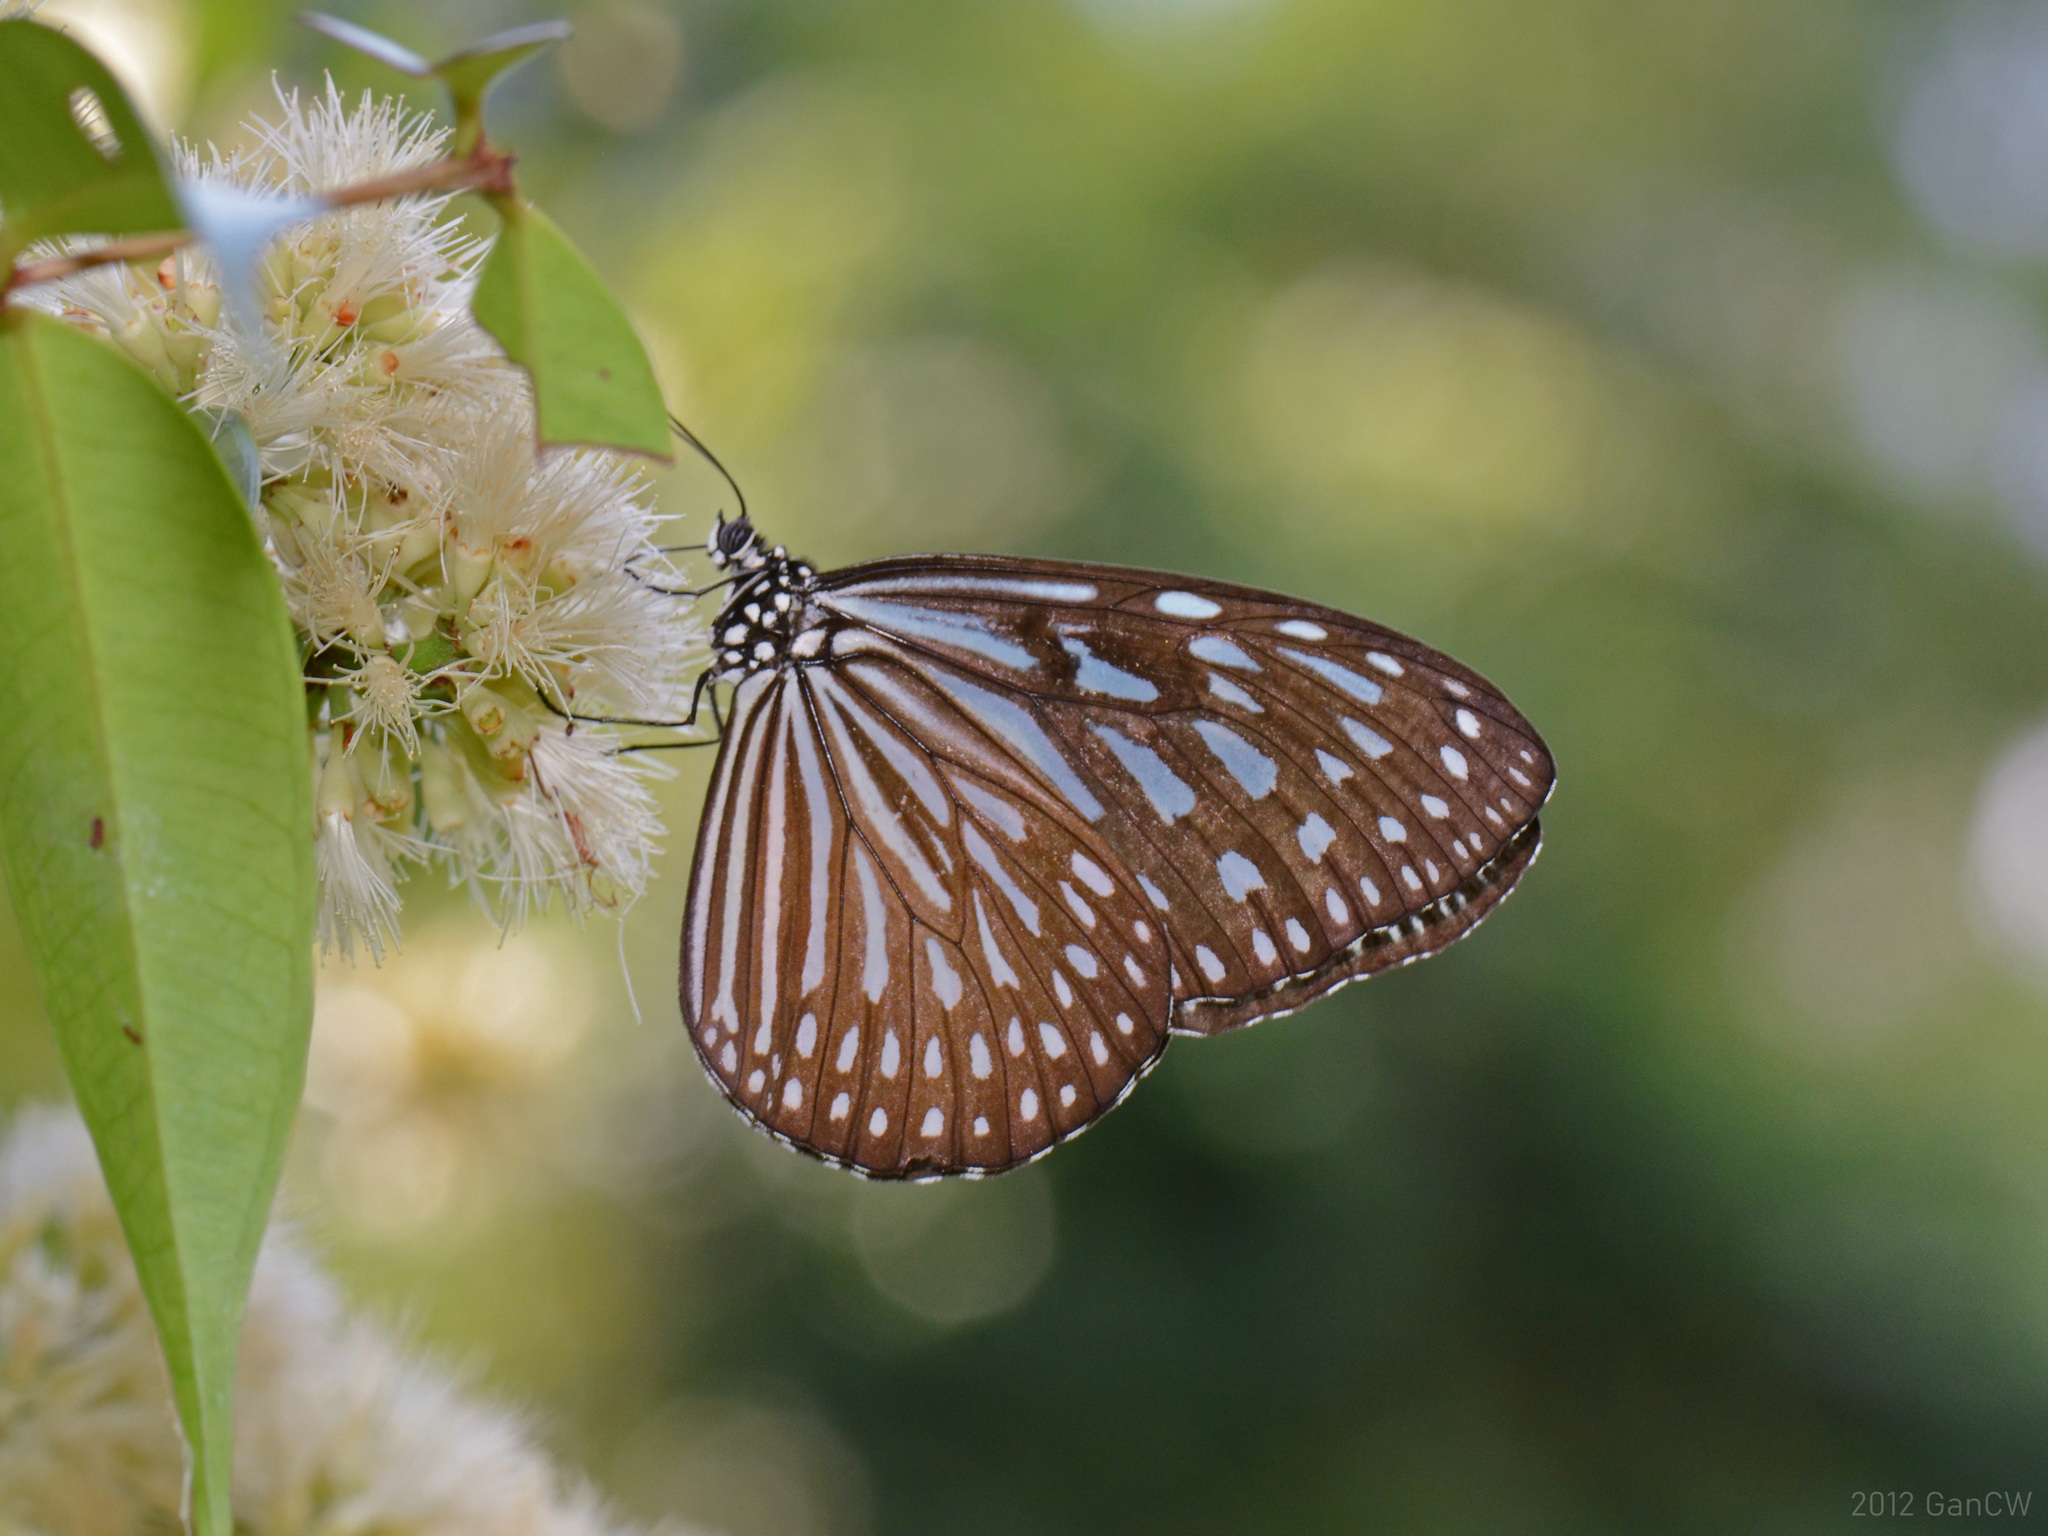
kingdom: Animalia
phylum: Arthropoda
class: Insecta
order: Lepidoptera
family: Nymphalidae
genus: Ideopsis
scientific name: Ideopsis vulgaris
